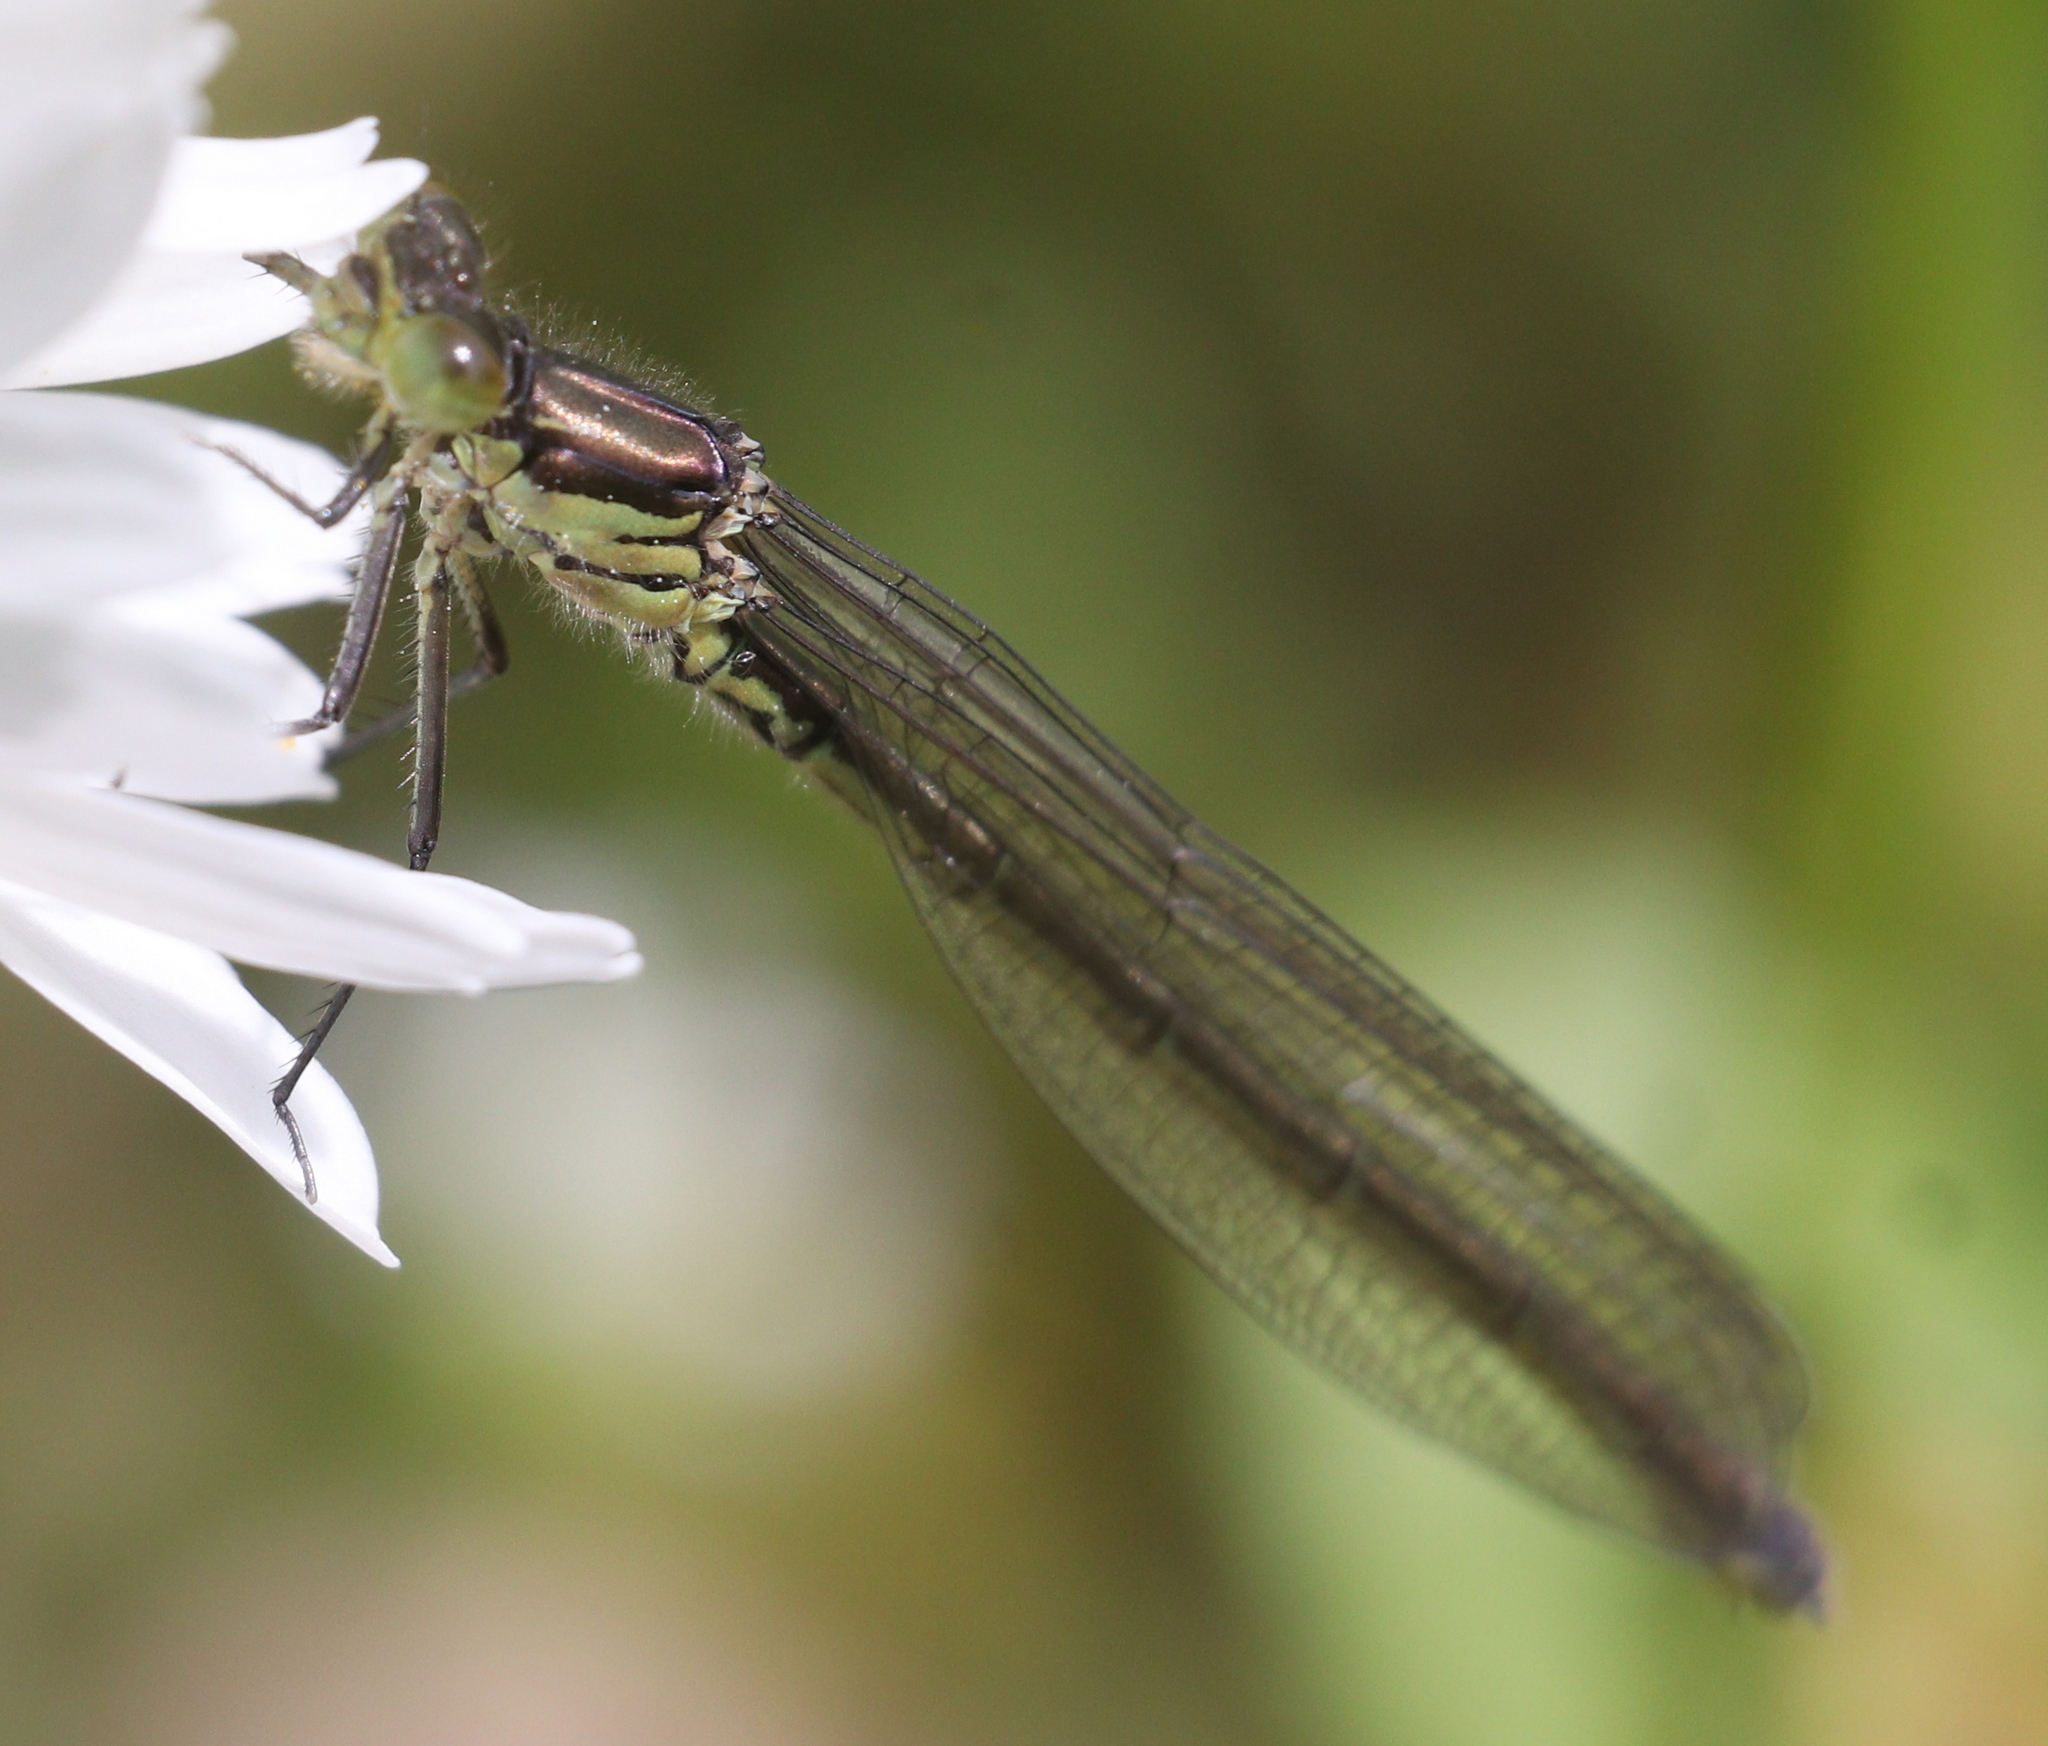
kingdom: Animalia
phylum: Arthropoda
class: Insecta
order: Odonata
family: Coenagrionidae
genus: Erythromma
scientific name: Erythromma najas
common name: Red-eyed damselfly
